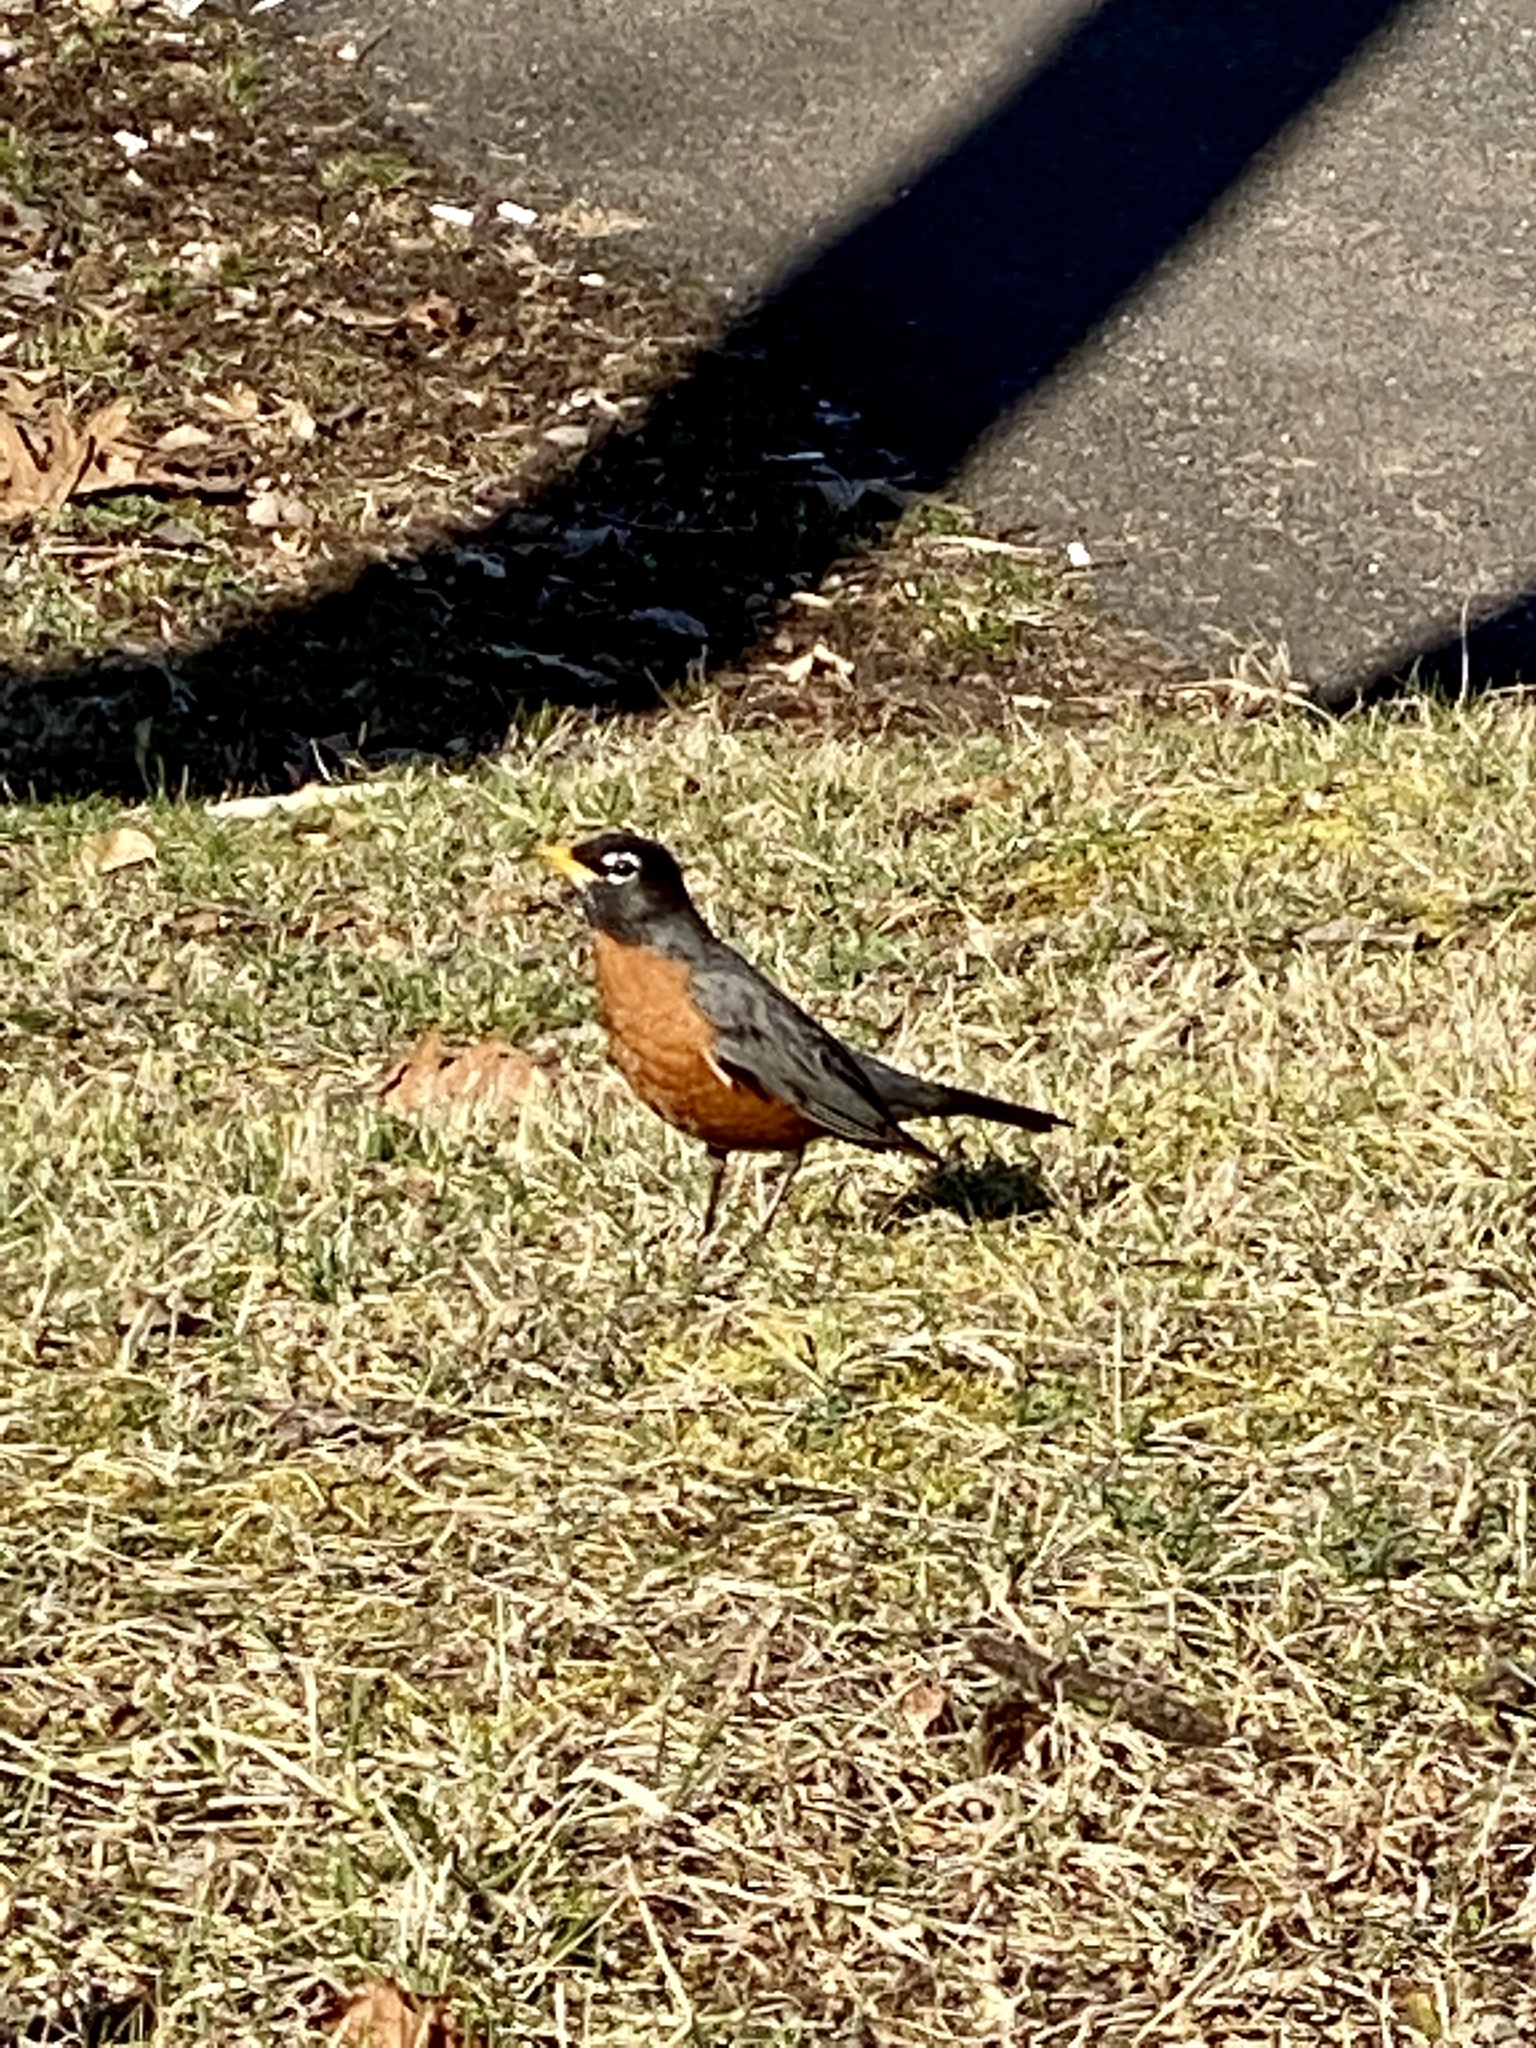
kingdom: Animalia
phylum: Chordata
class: Aves
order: Passeriformes
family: Turdidae
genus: Turdus
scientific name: Turdus migratorius
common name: American robin
